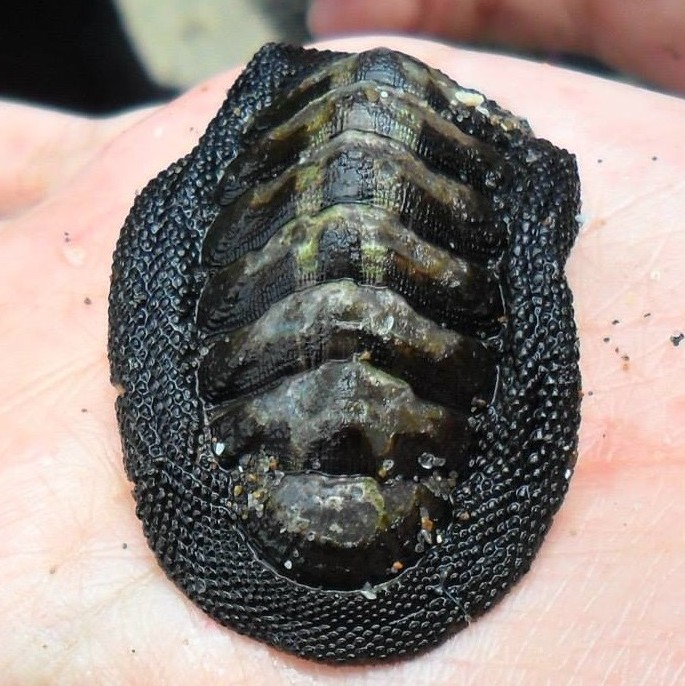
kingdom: Animalia
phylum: Mollusca
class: Polyplacophora
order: Chitonida
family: Chitonidae
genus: Chiton
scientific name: Chiton granosus
